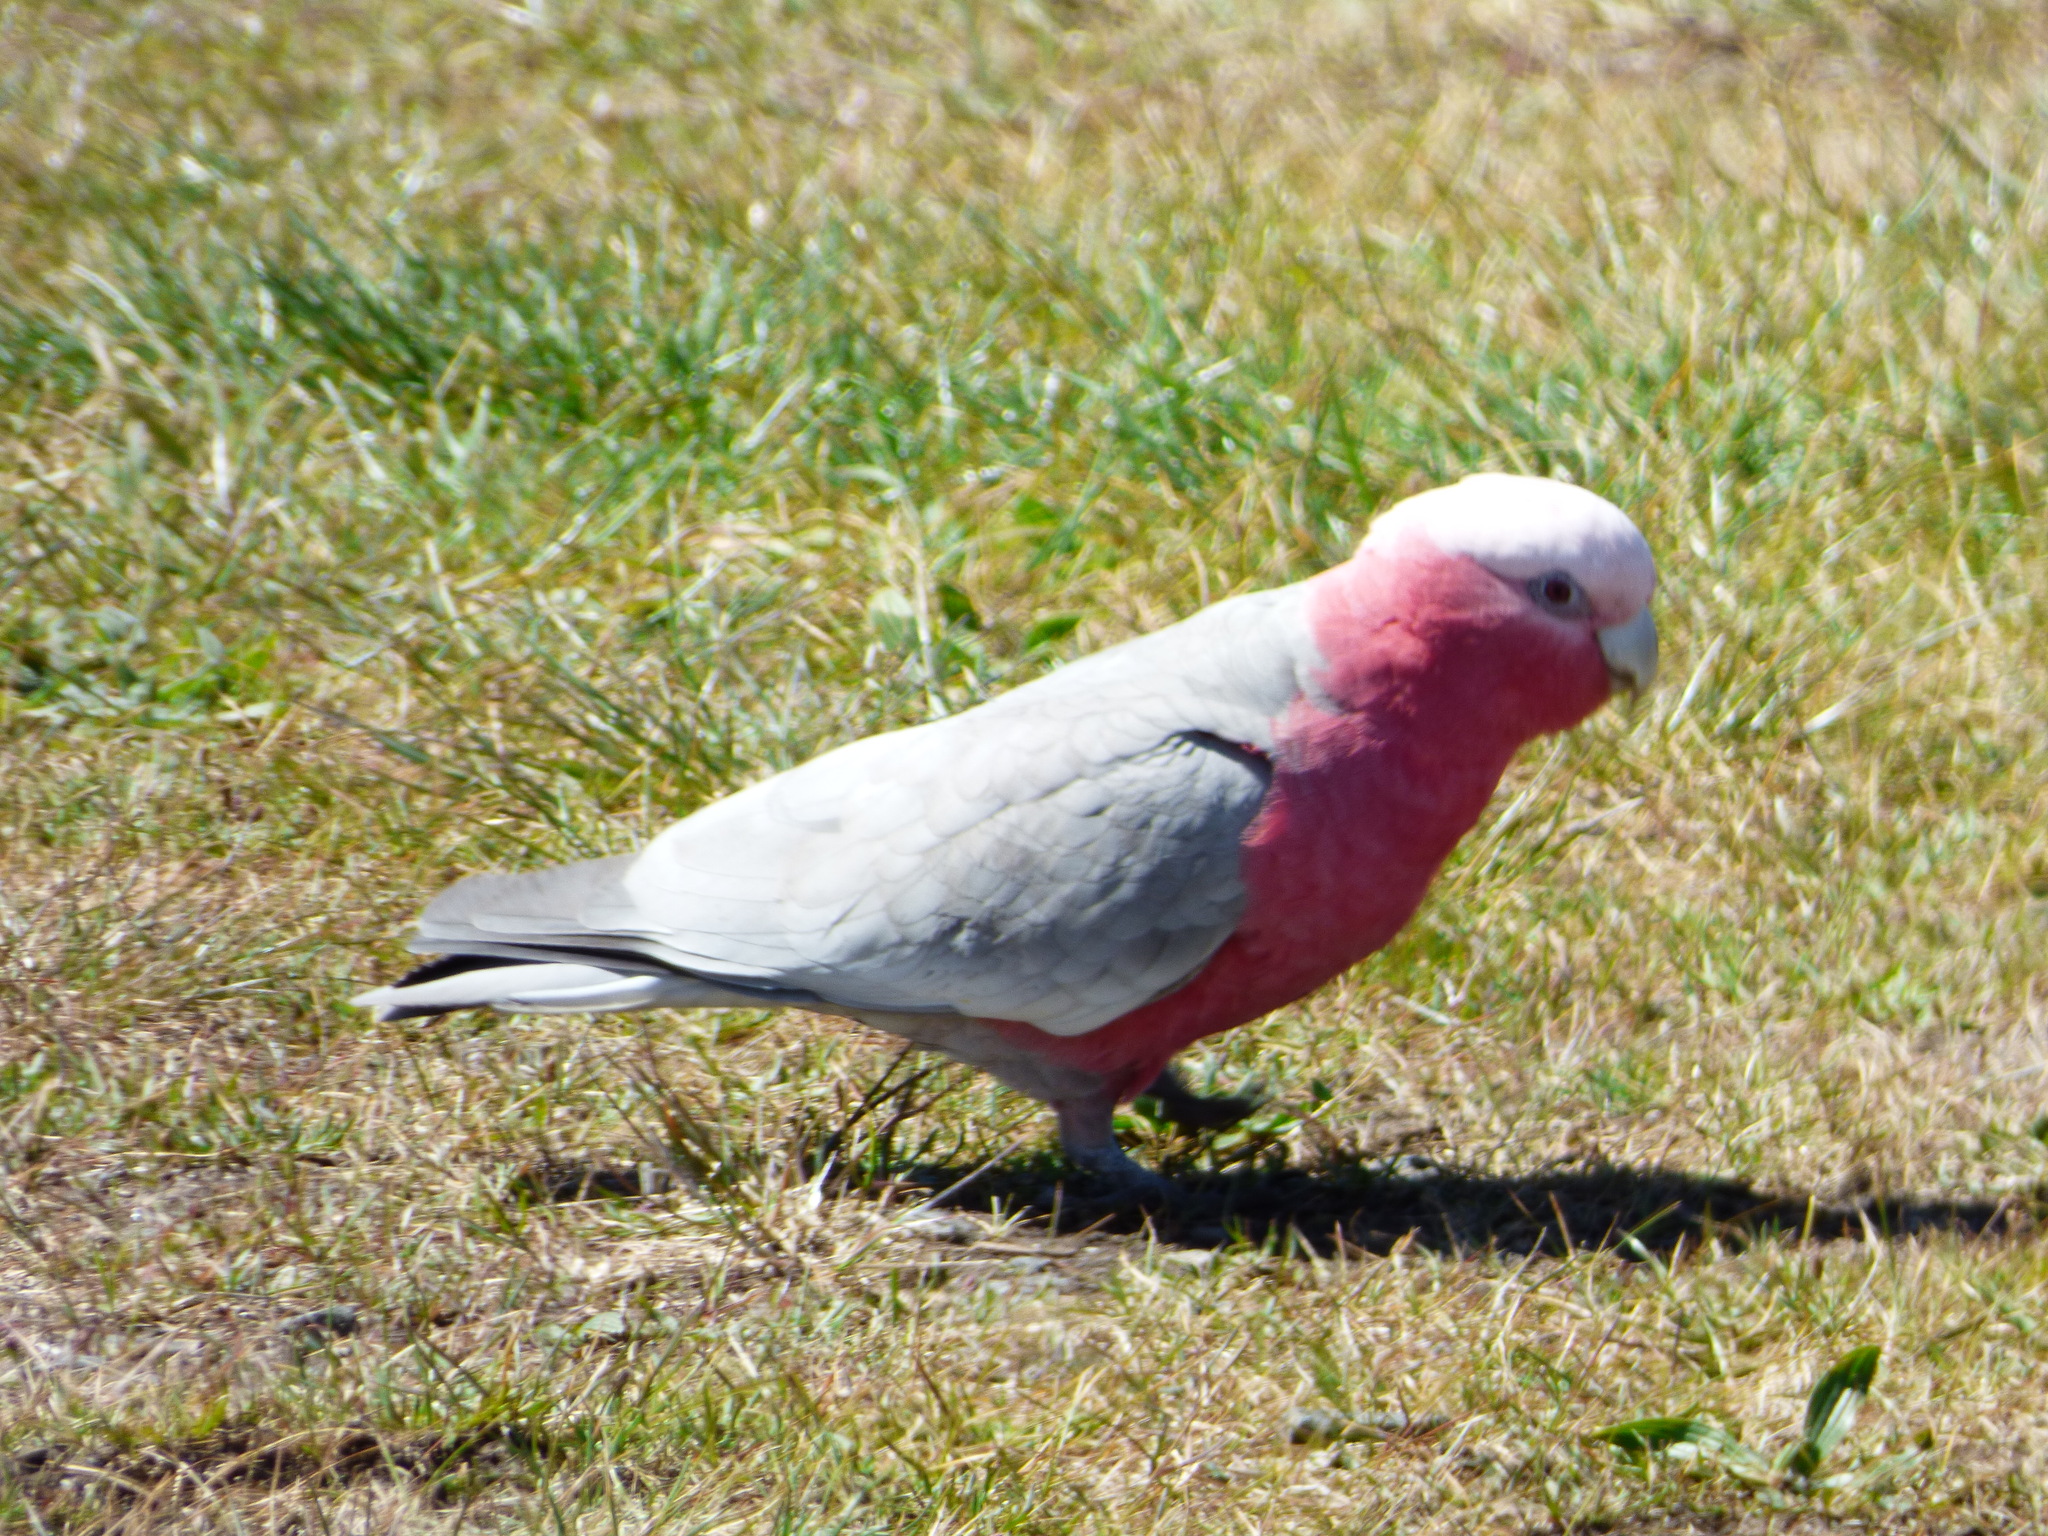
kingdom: Animalia
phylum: Chordata
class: Aves
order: Psittaciformes
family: Psittacidae
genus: Eolophus
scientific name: Eolophus roseicapilla
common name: Galah
